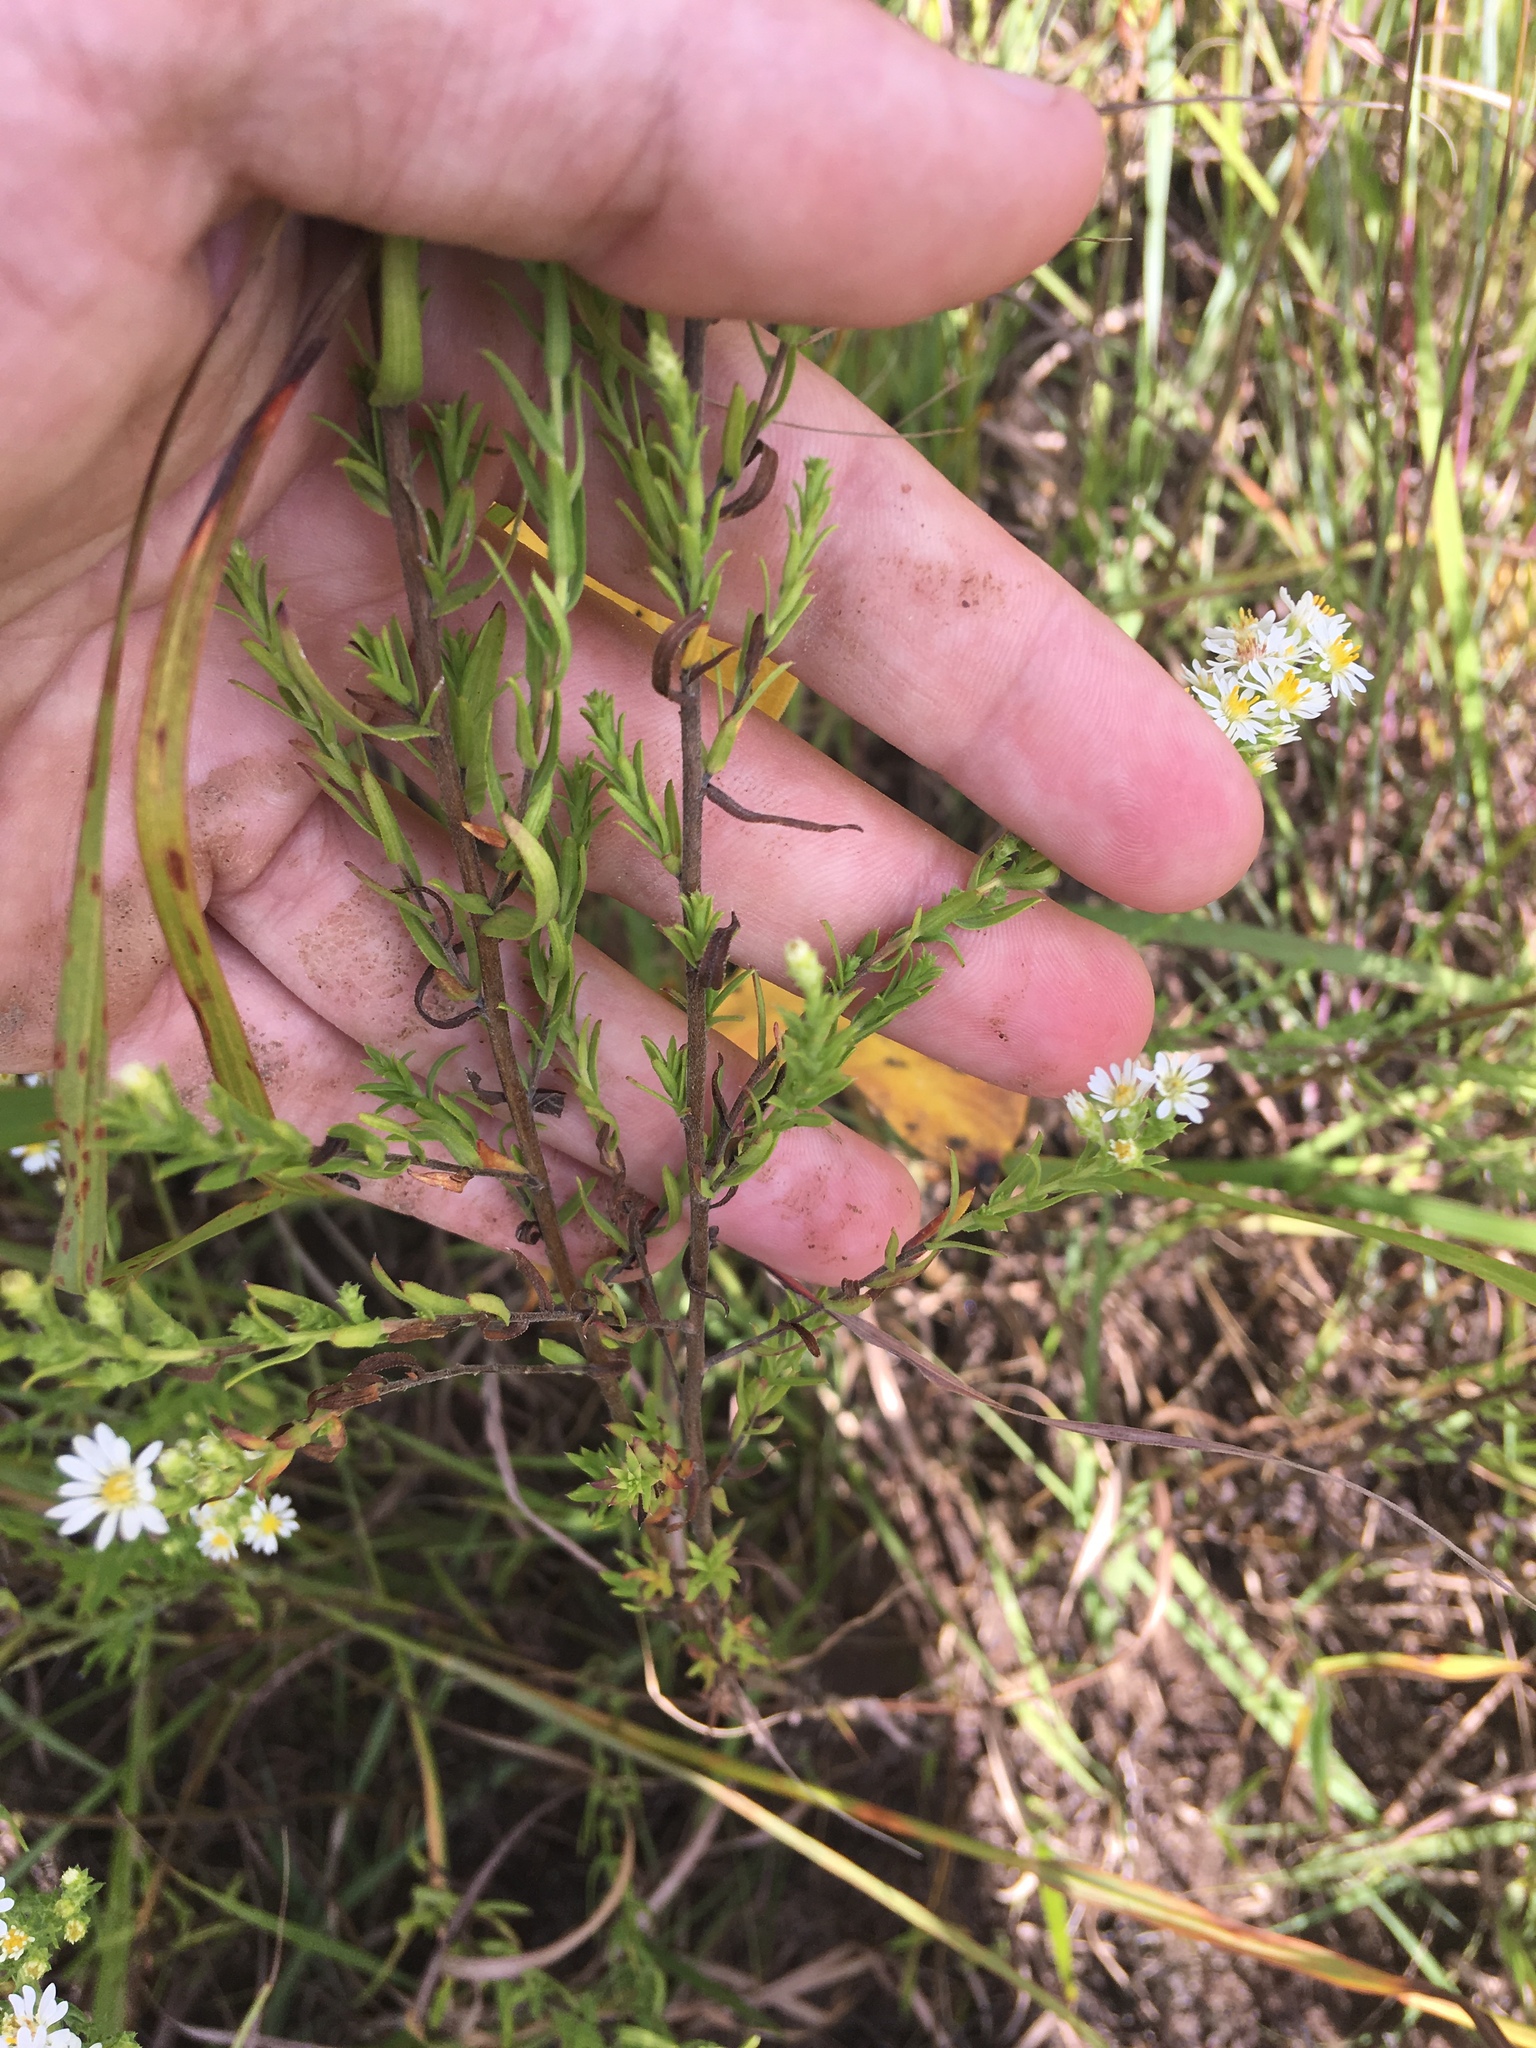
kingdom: Plantae
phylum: Tracheophyta
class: Magnoliopsida
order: Asterales
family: Asteraceae
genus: Symphyotrichum
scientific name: Symphyotrichum ericoides
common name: Heath aster
